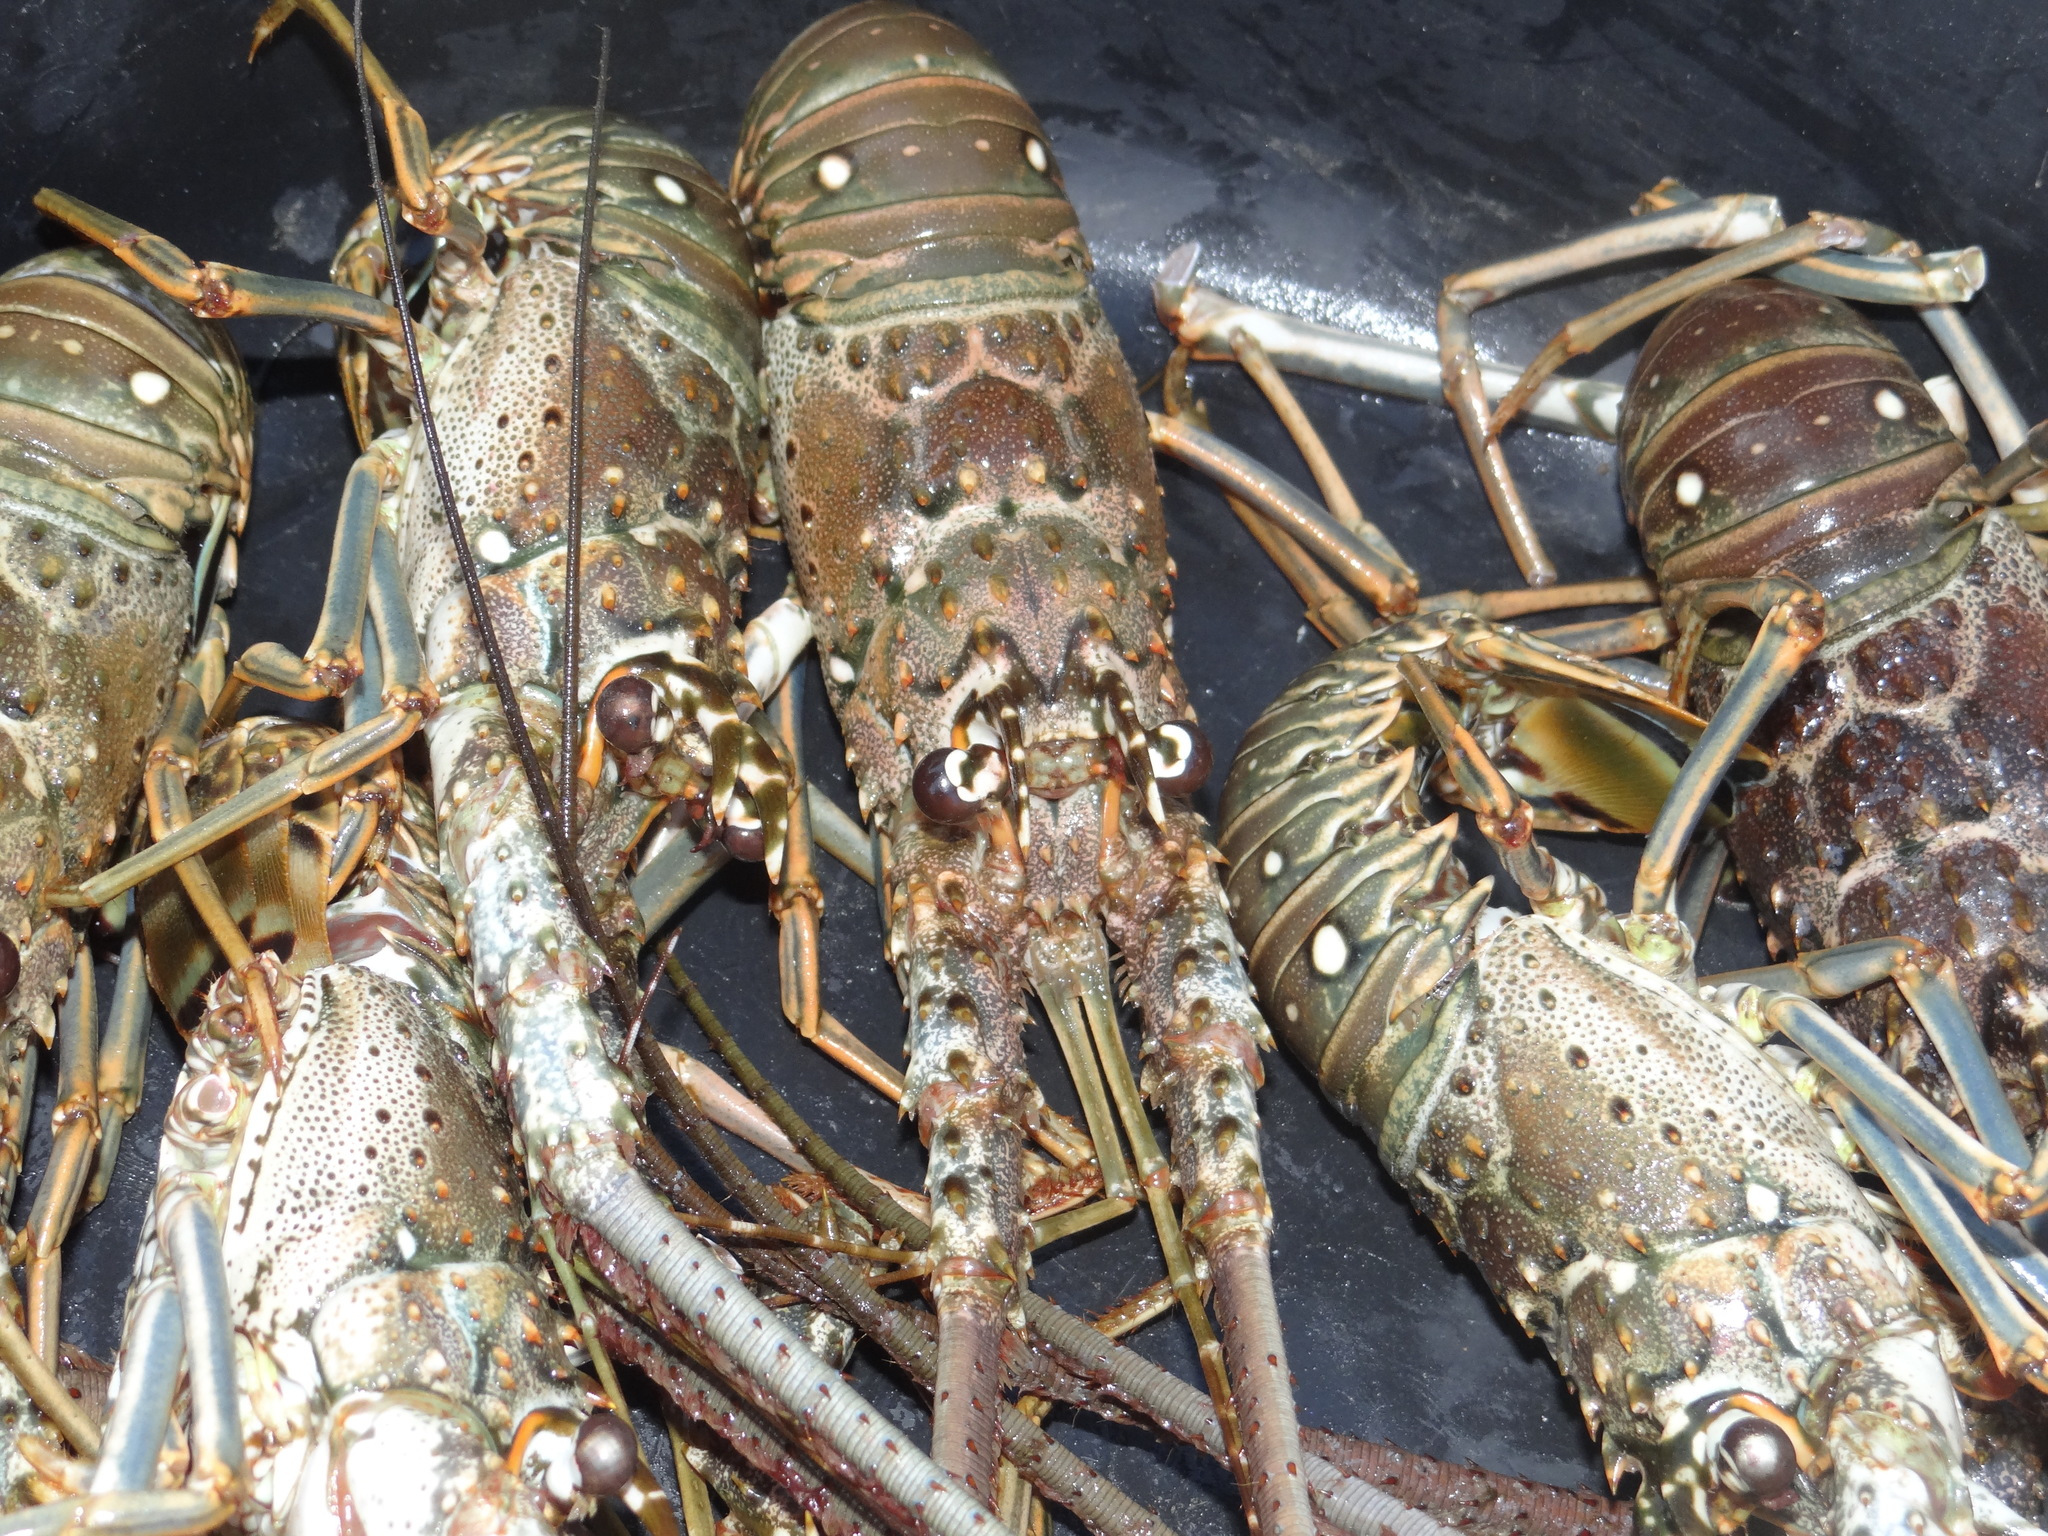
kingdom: Animalia
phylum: Arthropoda
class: Malacostraca
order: Decapoda
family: Palinuridae
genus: Panulirus
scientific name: Panulirus argus
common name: Caribbean spiny lobster
